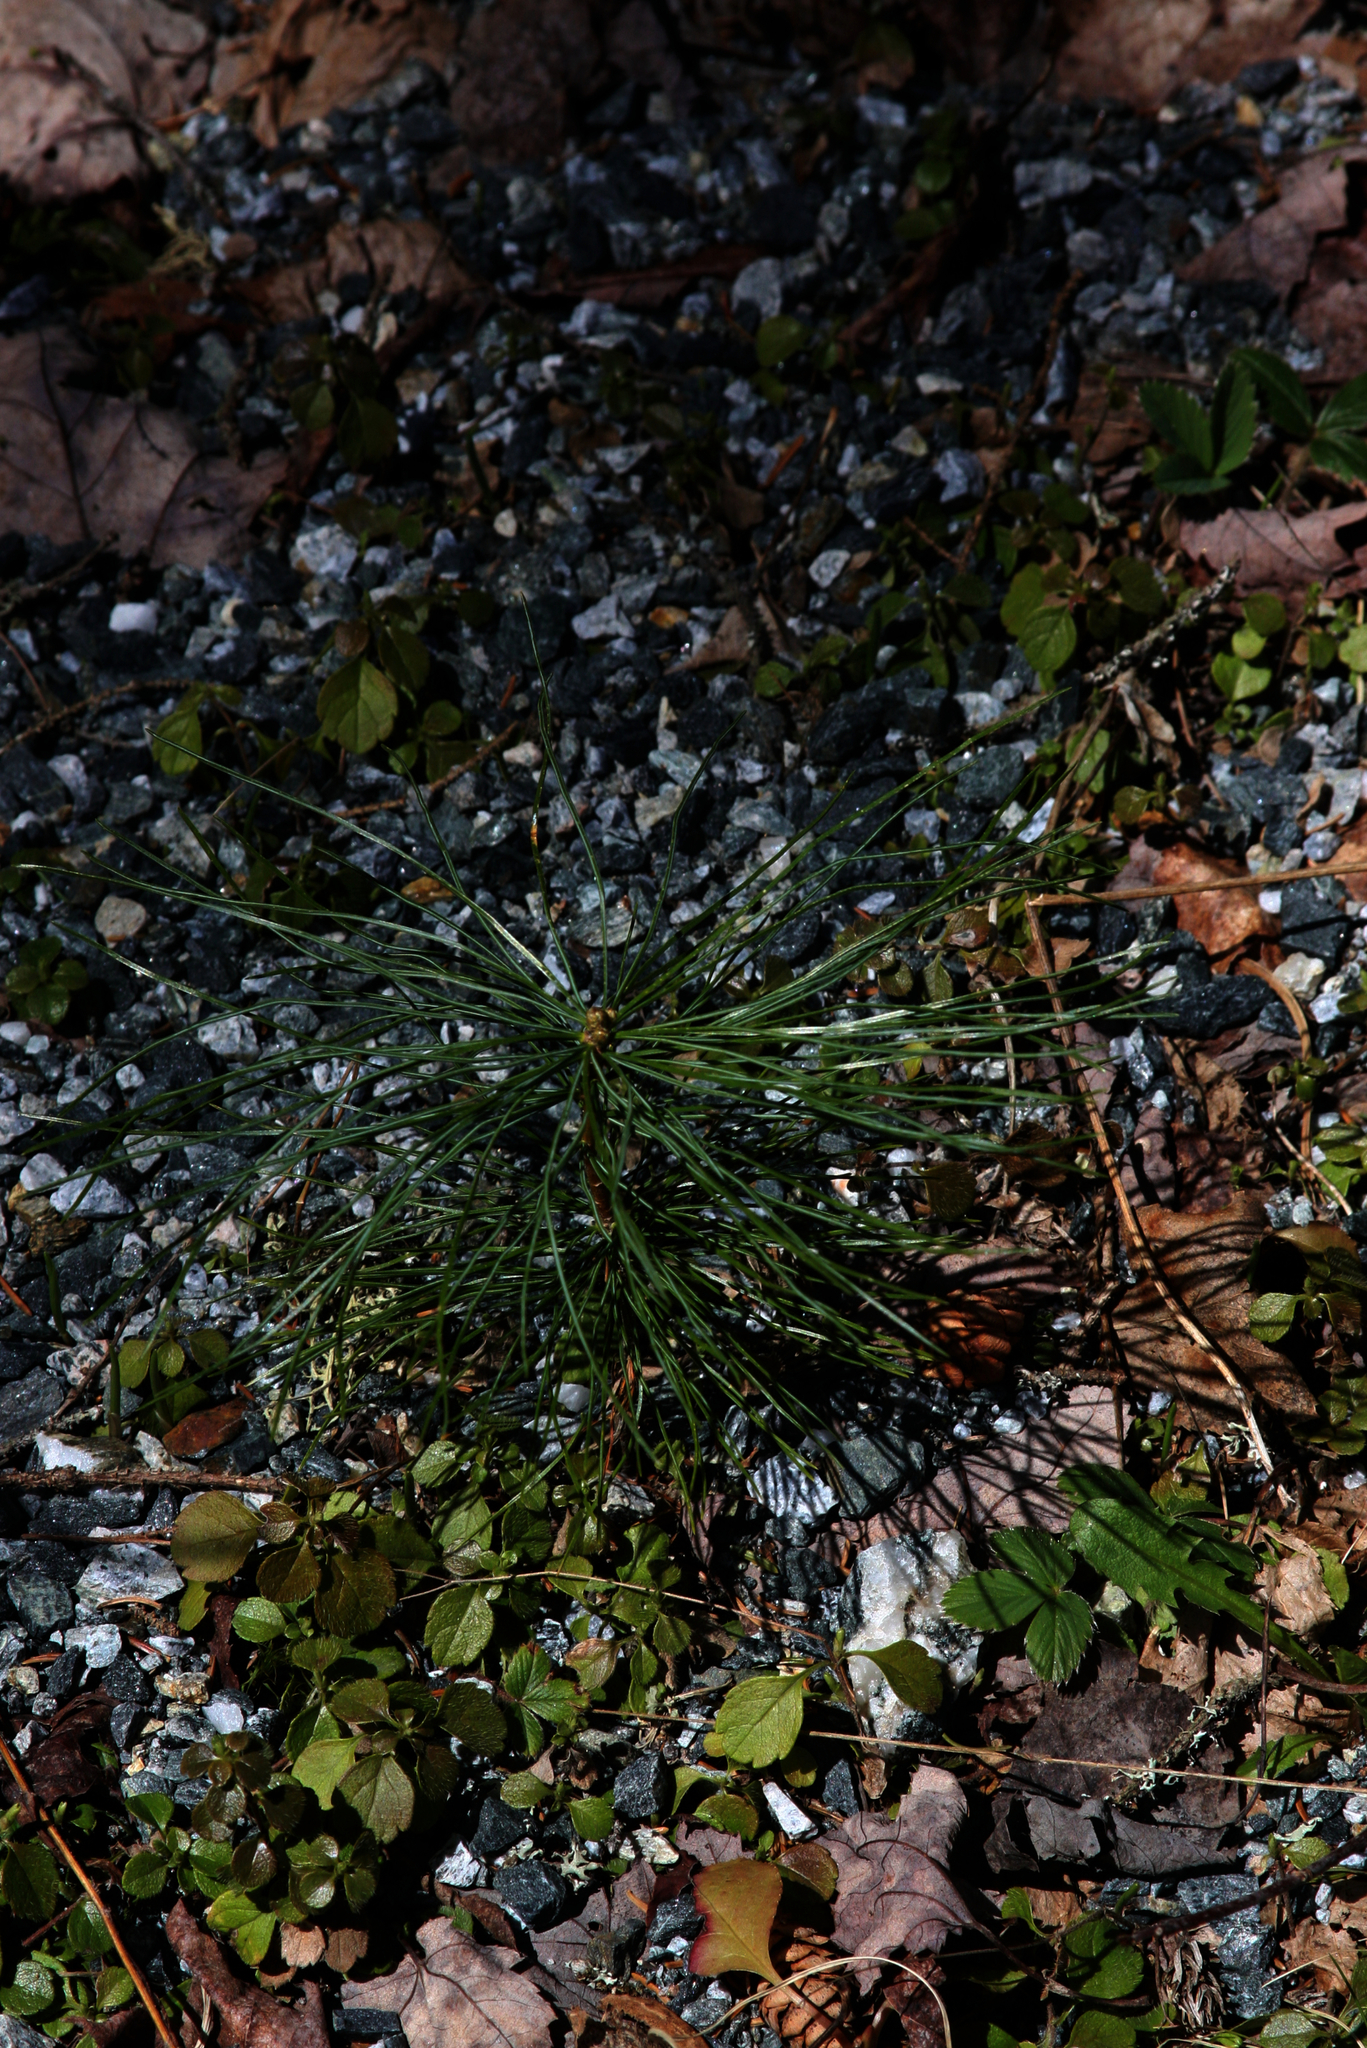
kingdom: Plantae
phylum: Tracheophyta
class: Pinopsida
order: Pinales
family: Pinaceae
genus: Pinus
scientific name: Pinus strobus
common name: Weymouth pine
